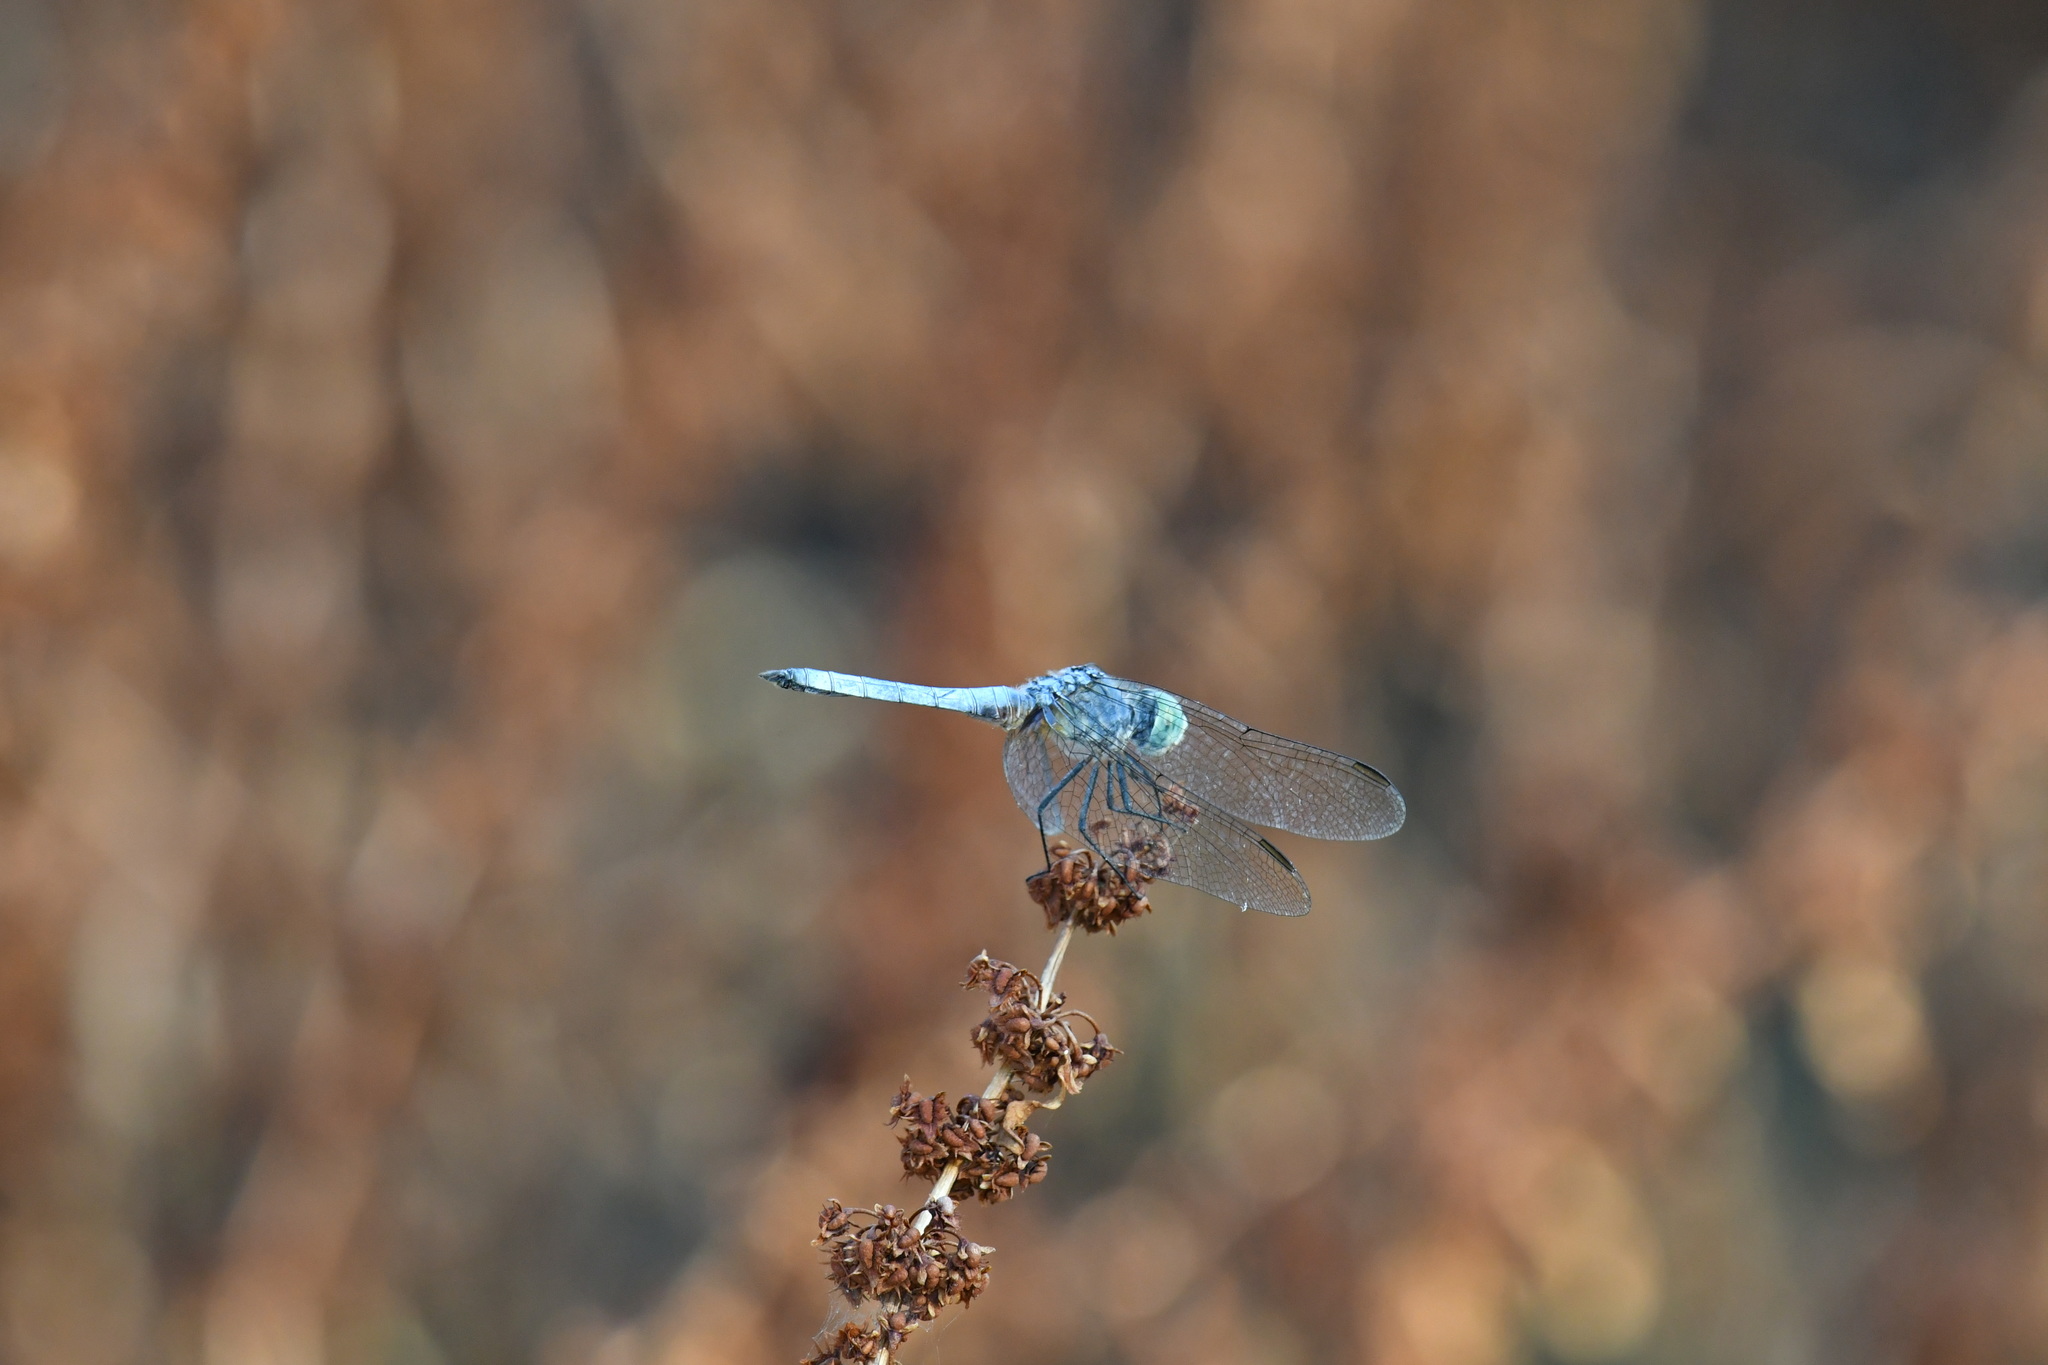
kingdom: Animalia
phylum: Arthropoda
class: Insecta
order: Odonata
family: Libellulidae
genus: Pachydiplax
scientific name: Pachydiplax longipennis
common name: Blue dasher
